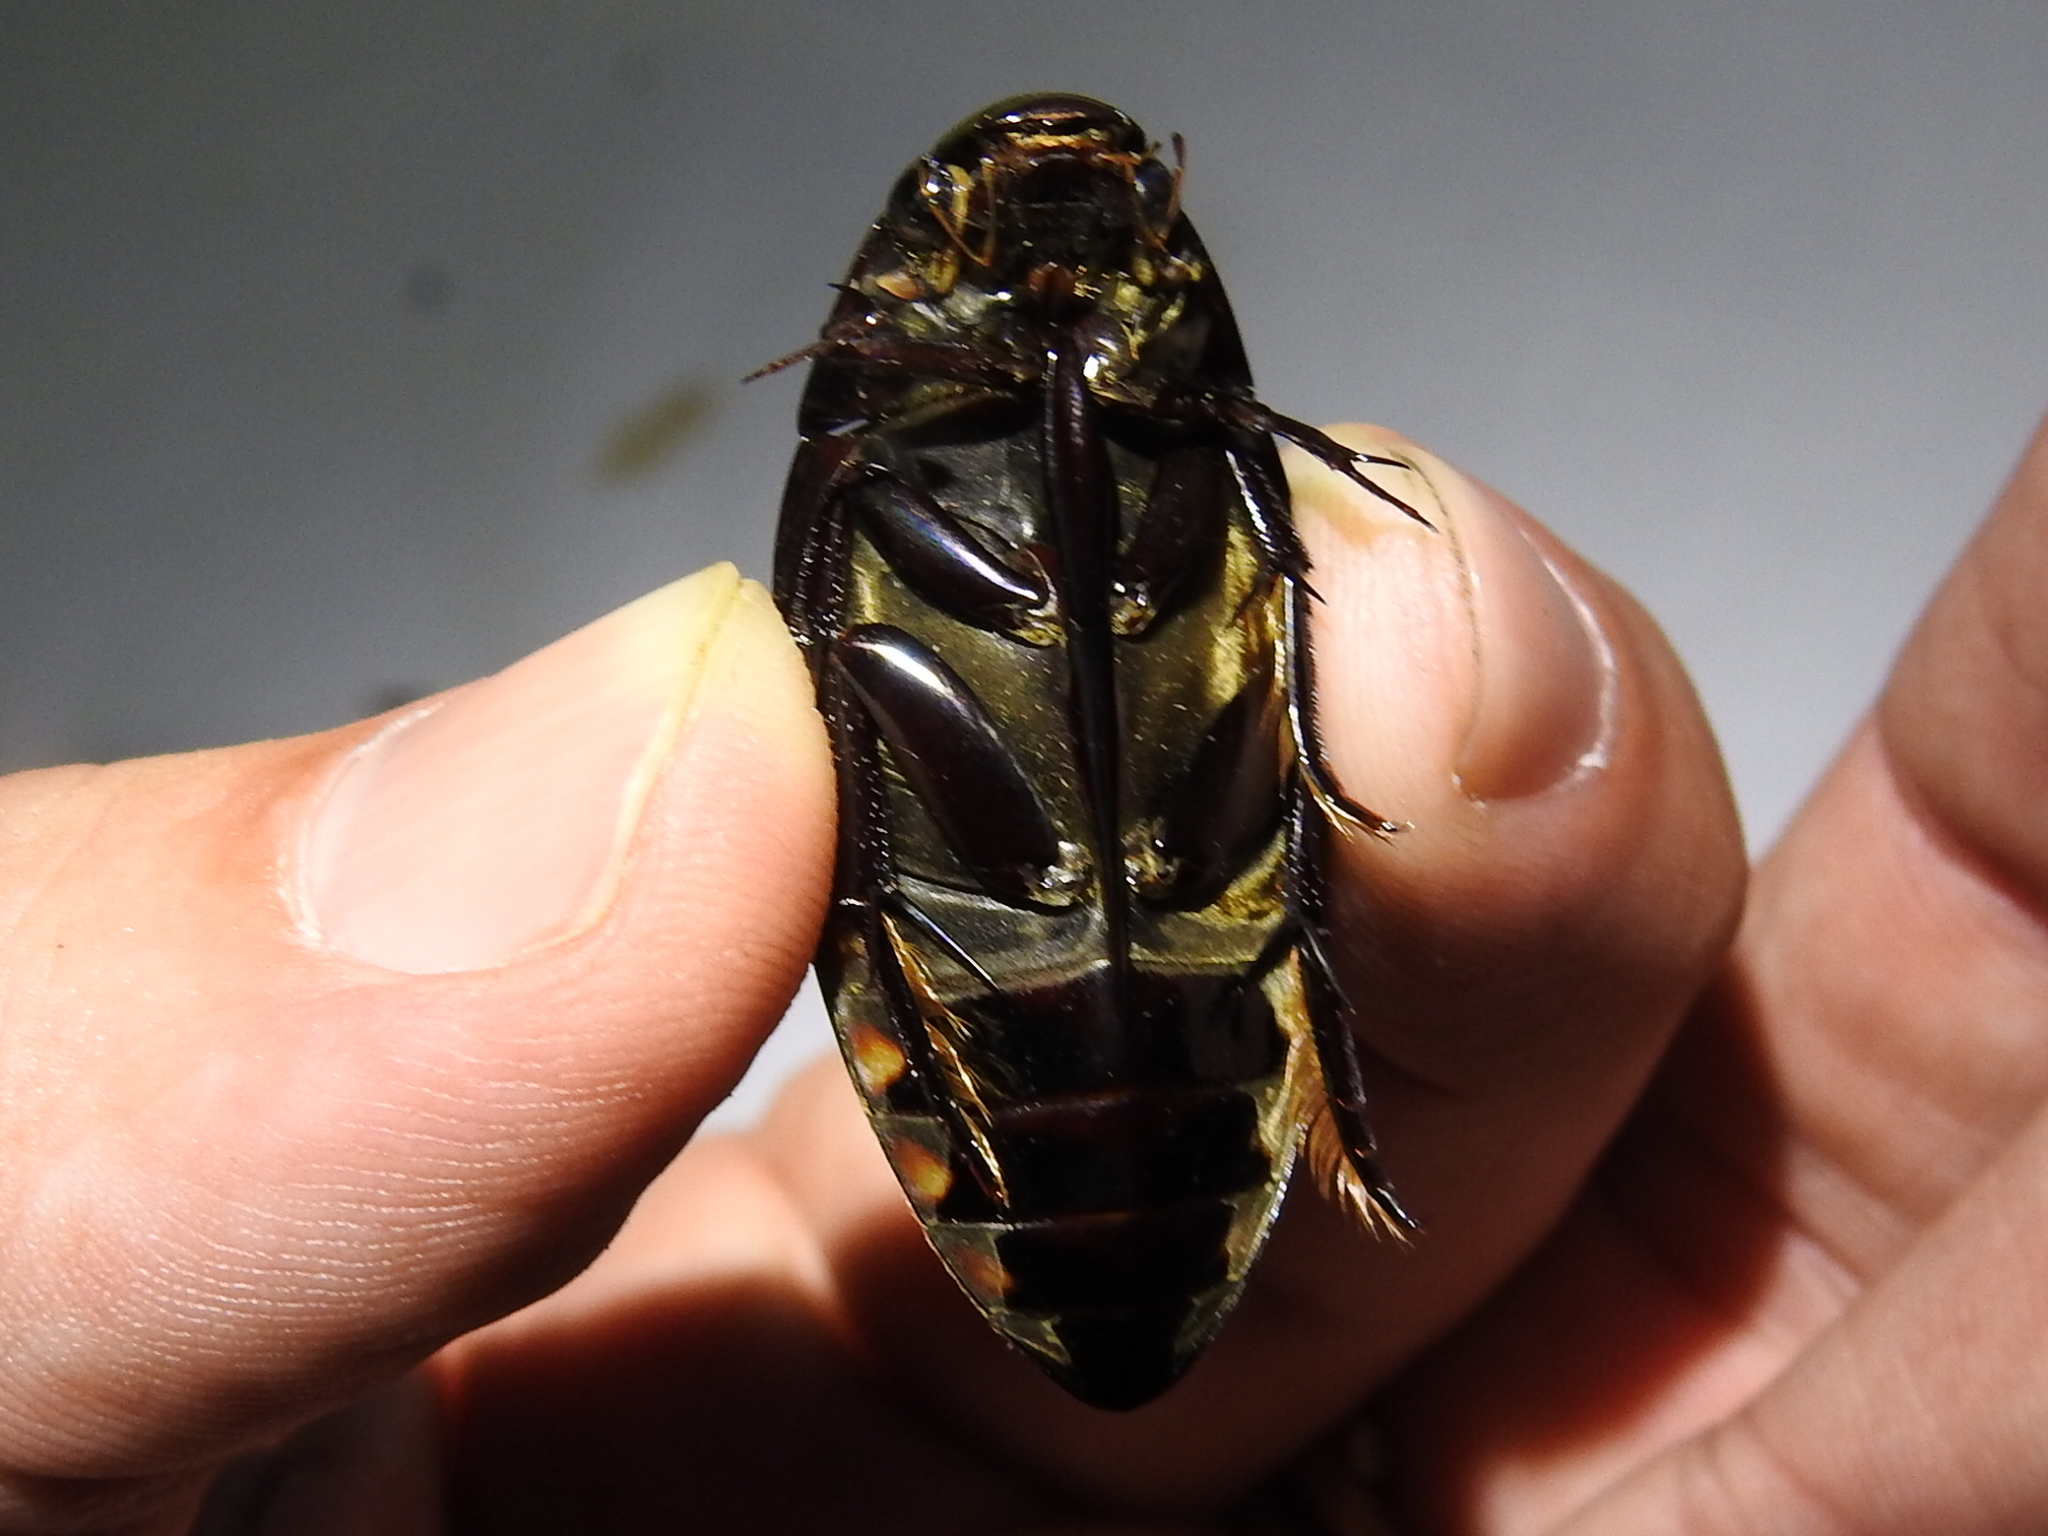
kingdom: Animalia
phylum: Arthropoda
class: Insecta
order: Coleoptera
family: Hydrophilidae
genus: Hydrophilus
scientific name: Hydrophilus triangularis
